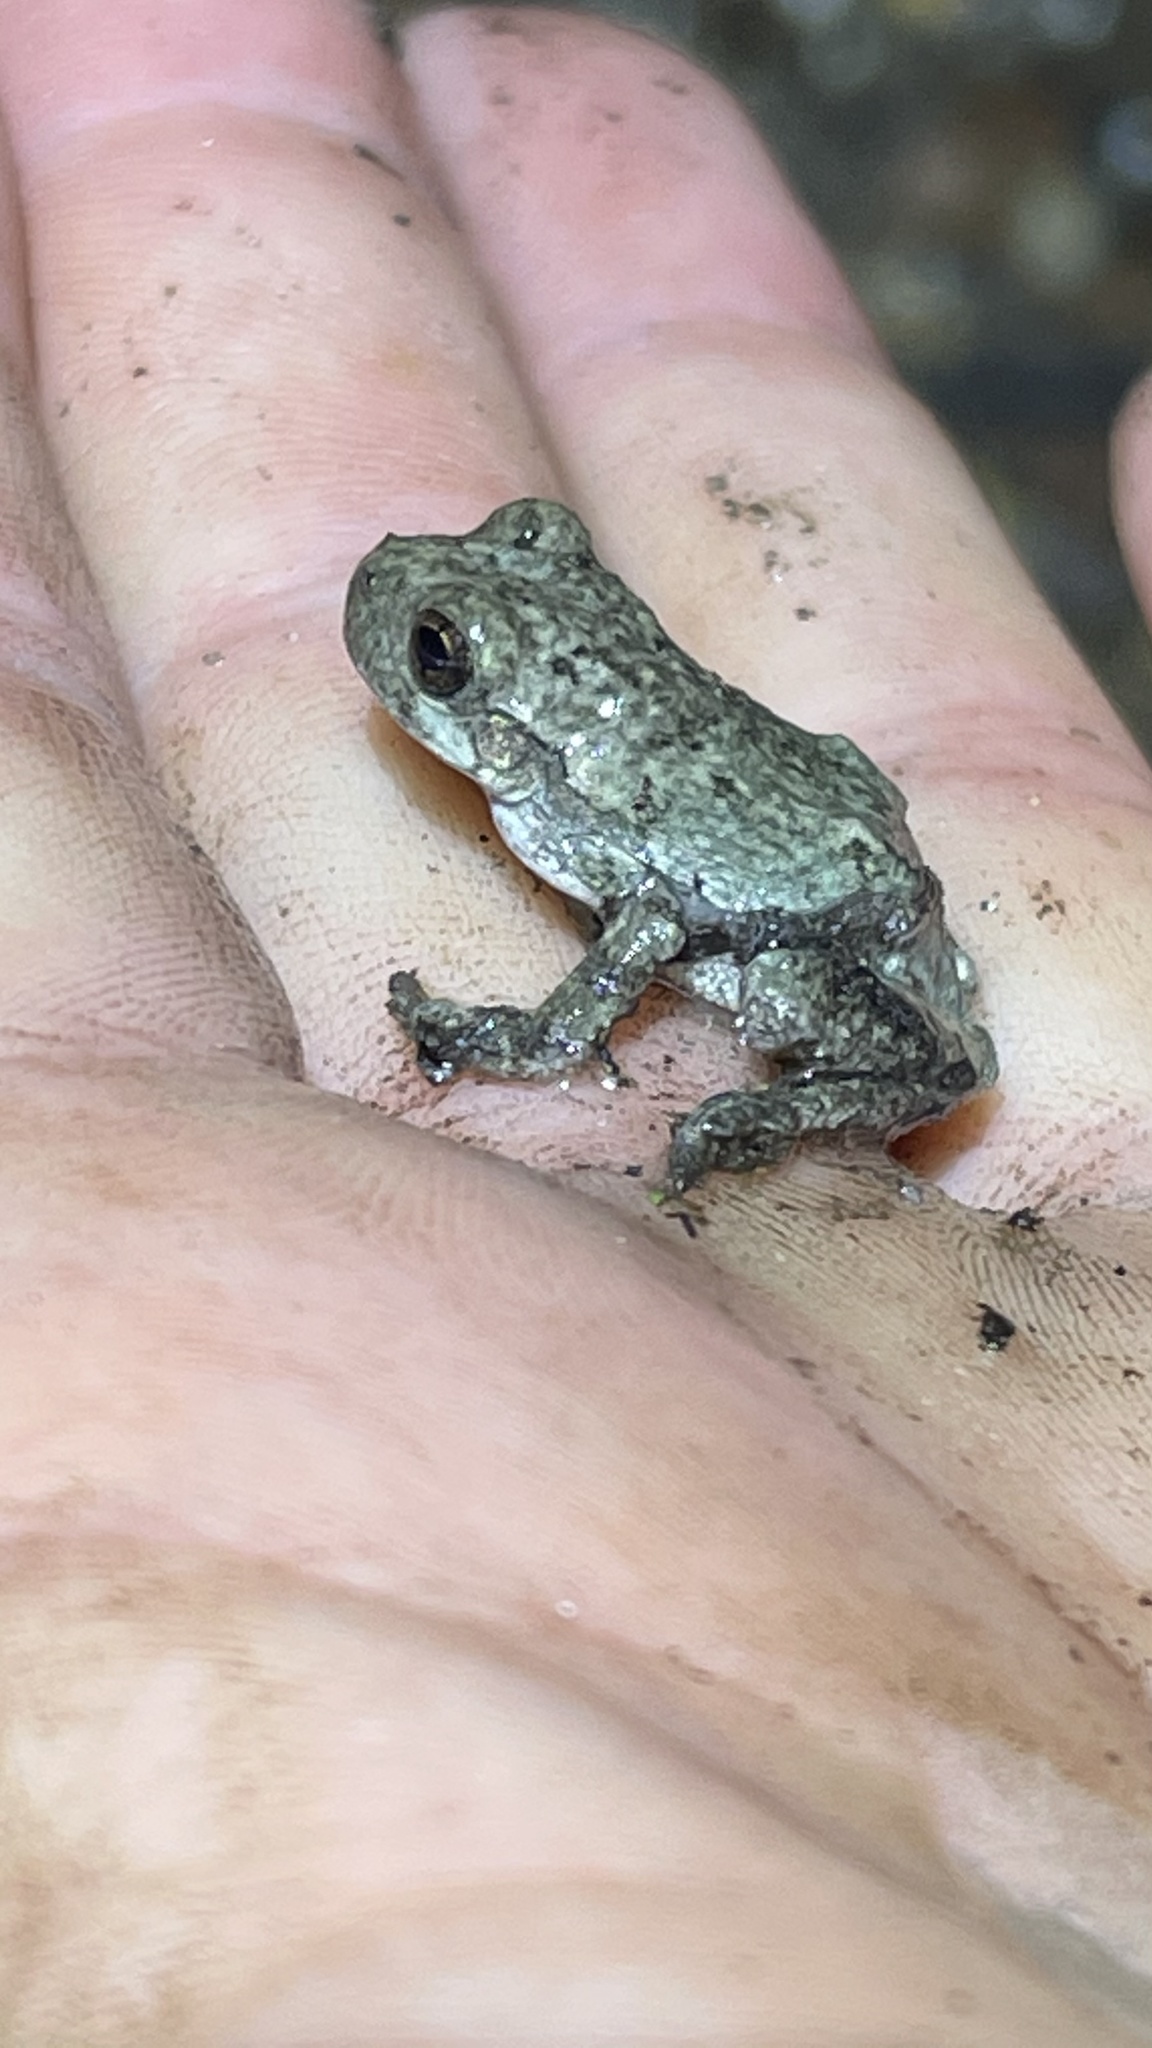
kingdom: Animalia
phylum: Chordata
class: Amphibia
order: Anura
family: Hylidae
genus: Hyla
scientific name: Hyla
